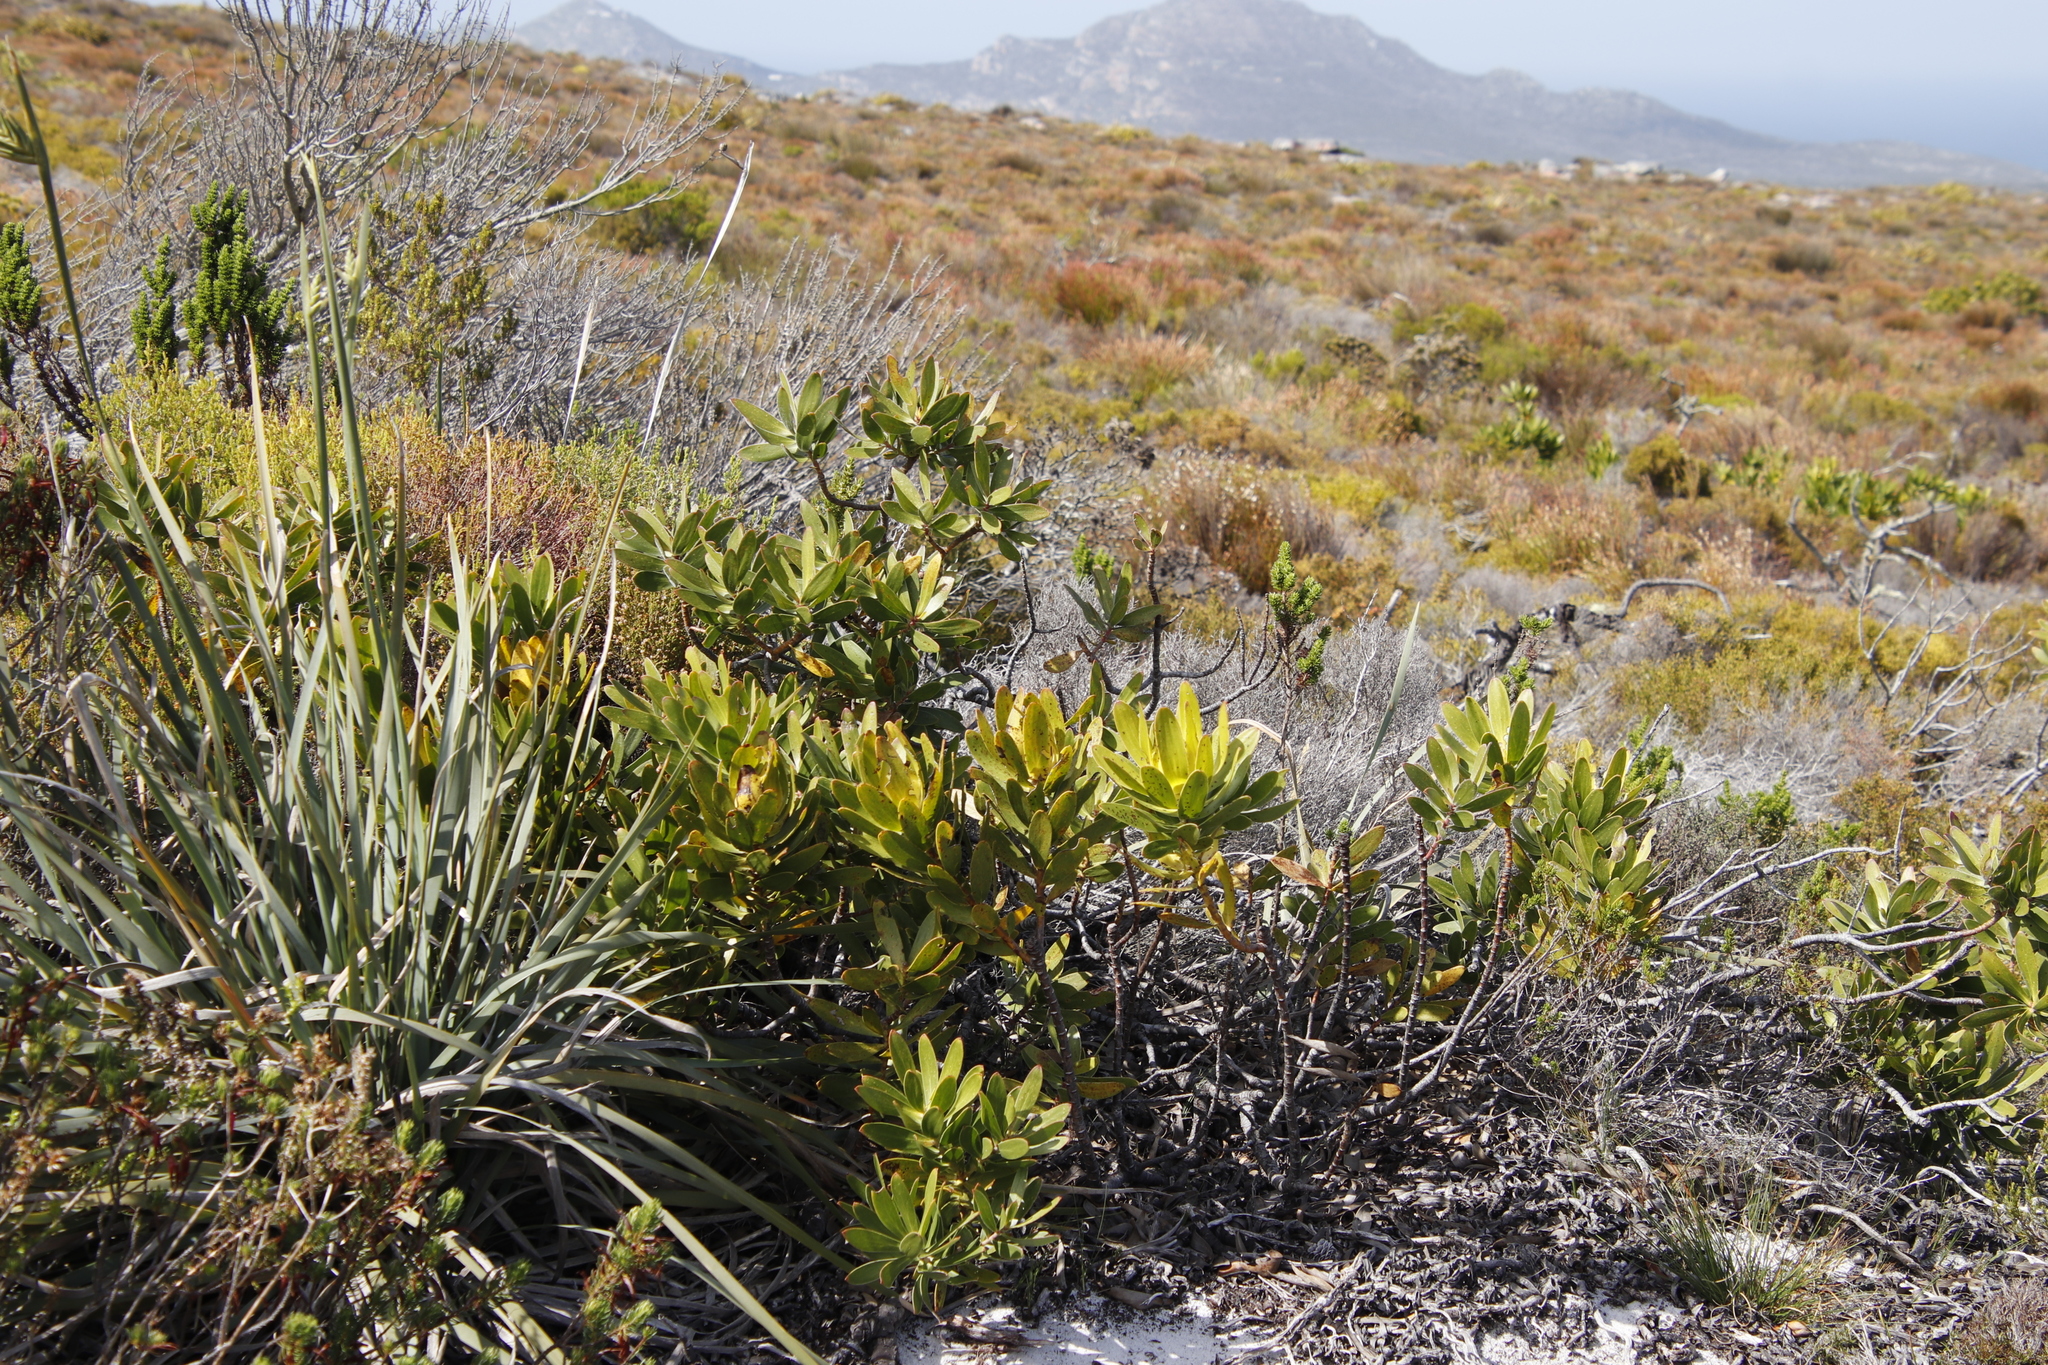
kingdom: Plantae
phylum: Tracheophyta
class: Magnoliopsida
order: Proteales
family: Proteaceae
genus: Leucadendron
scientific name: Leucadendron laureolum
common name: Golden sunshinebush
